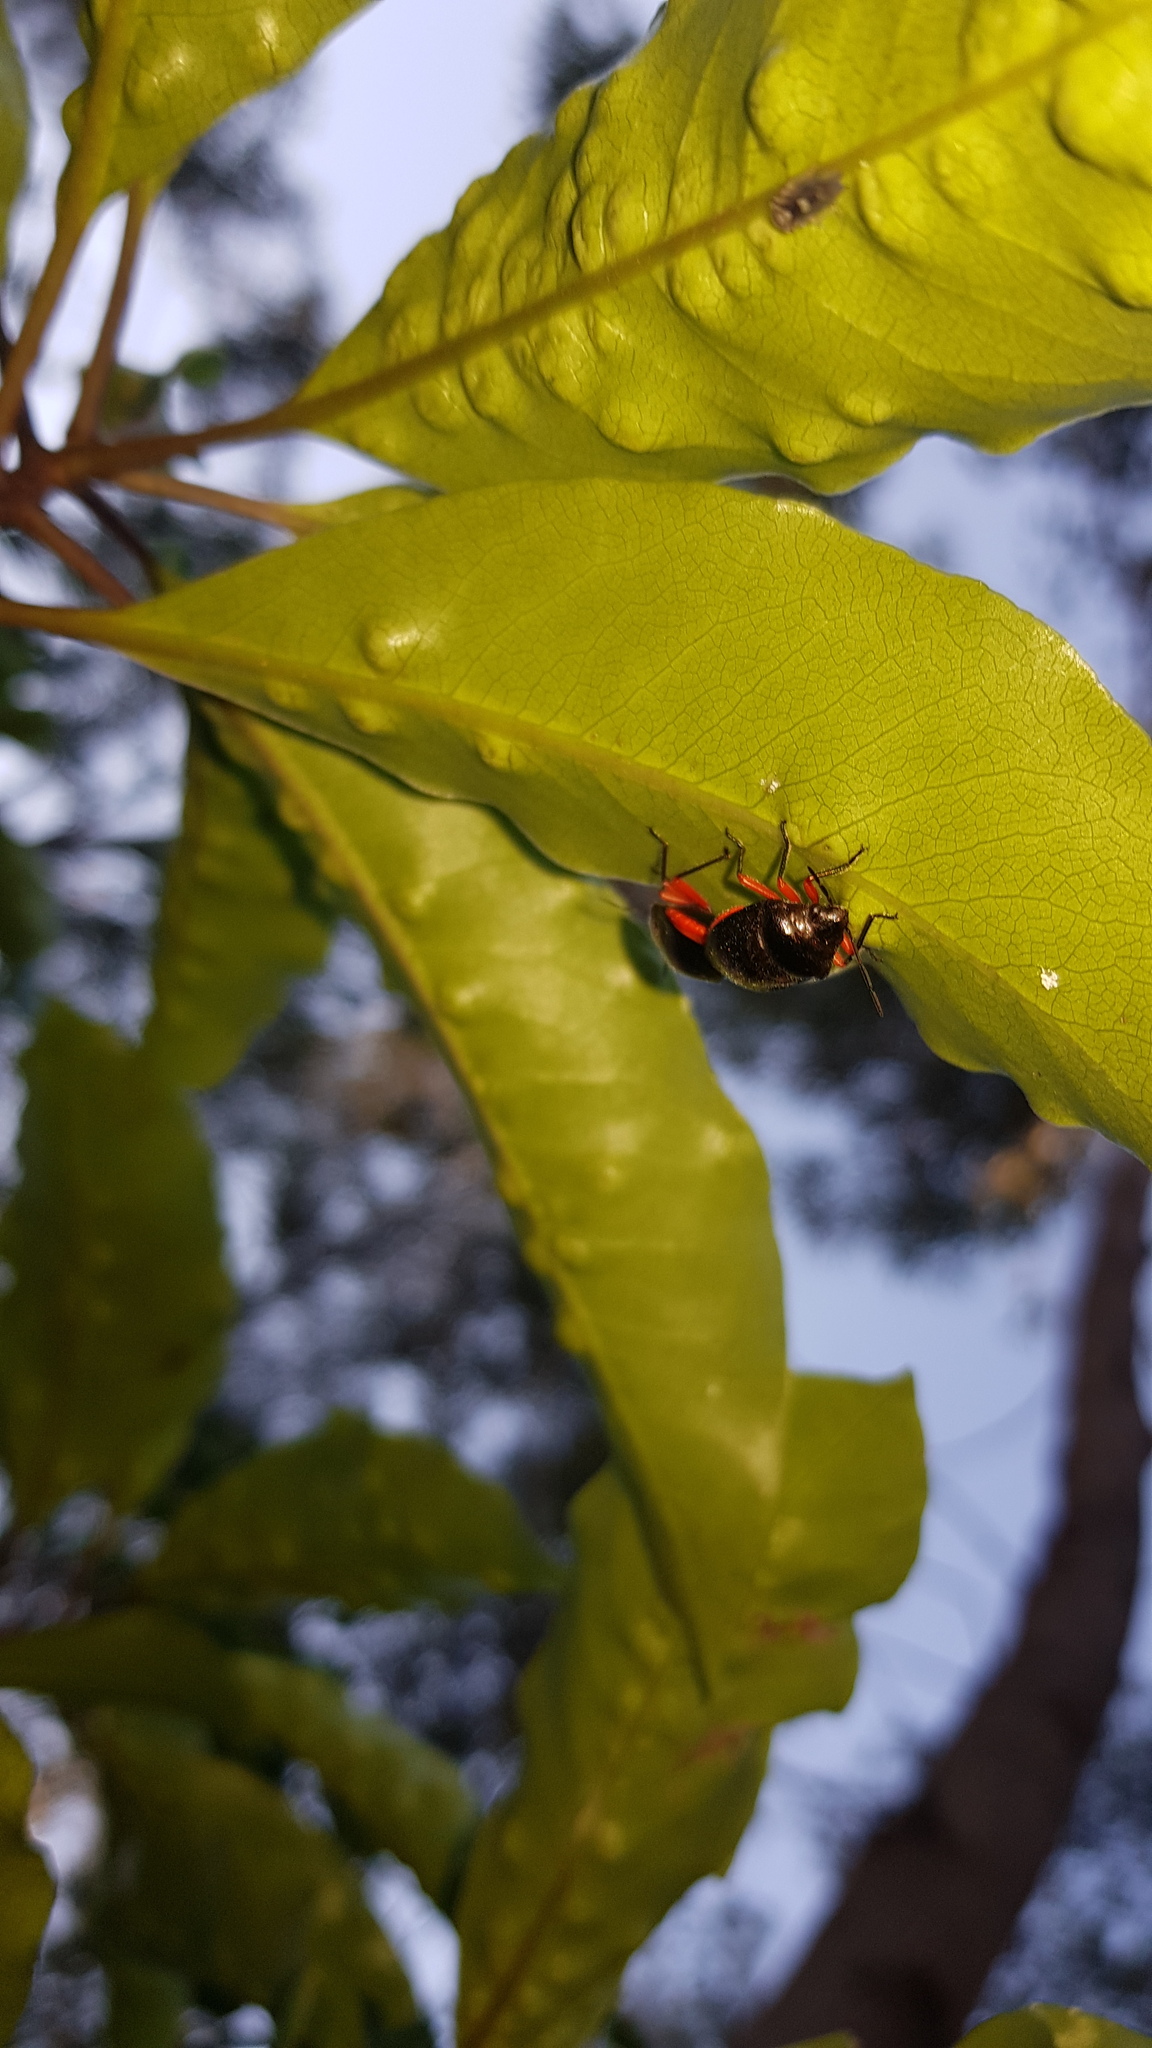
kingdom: Animalia
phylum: Arthropoda
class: Insecta
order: Hemiptera
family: Scutelleridae
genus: Lampromicra
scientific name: Lampromicra
